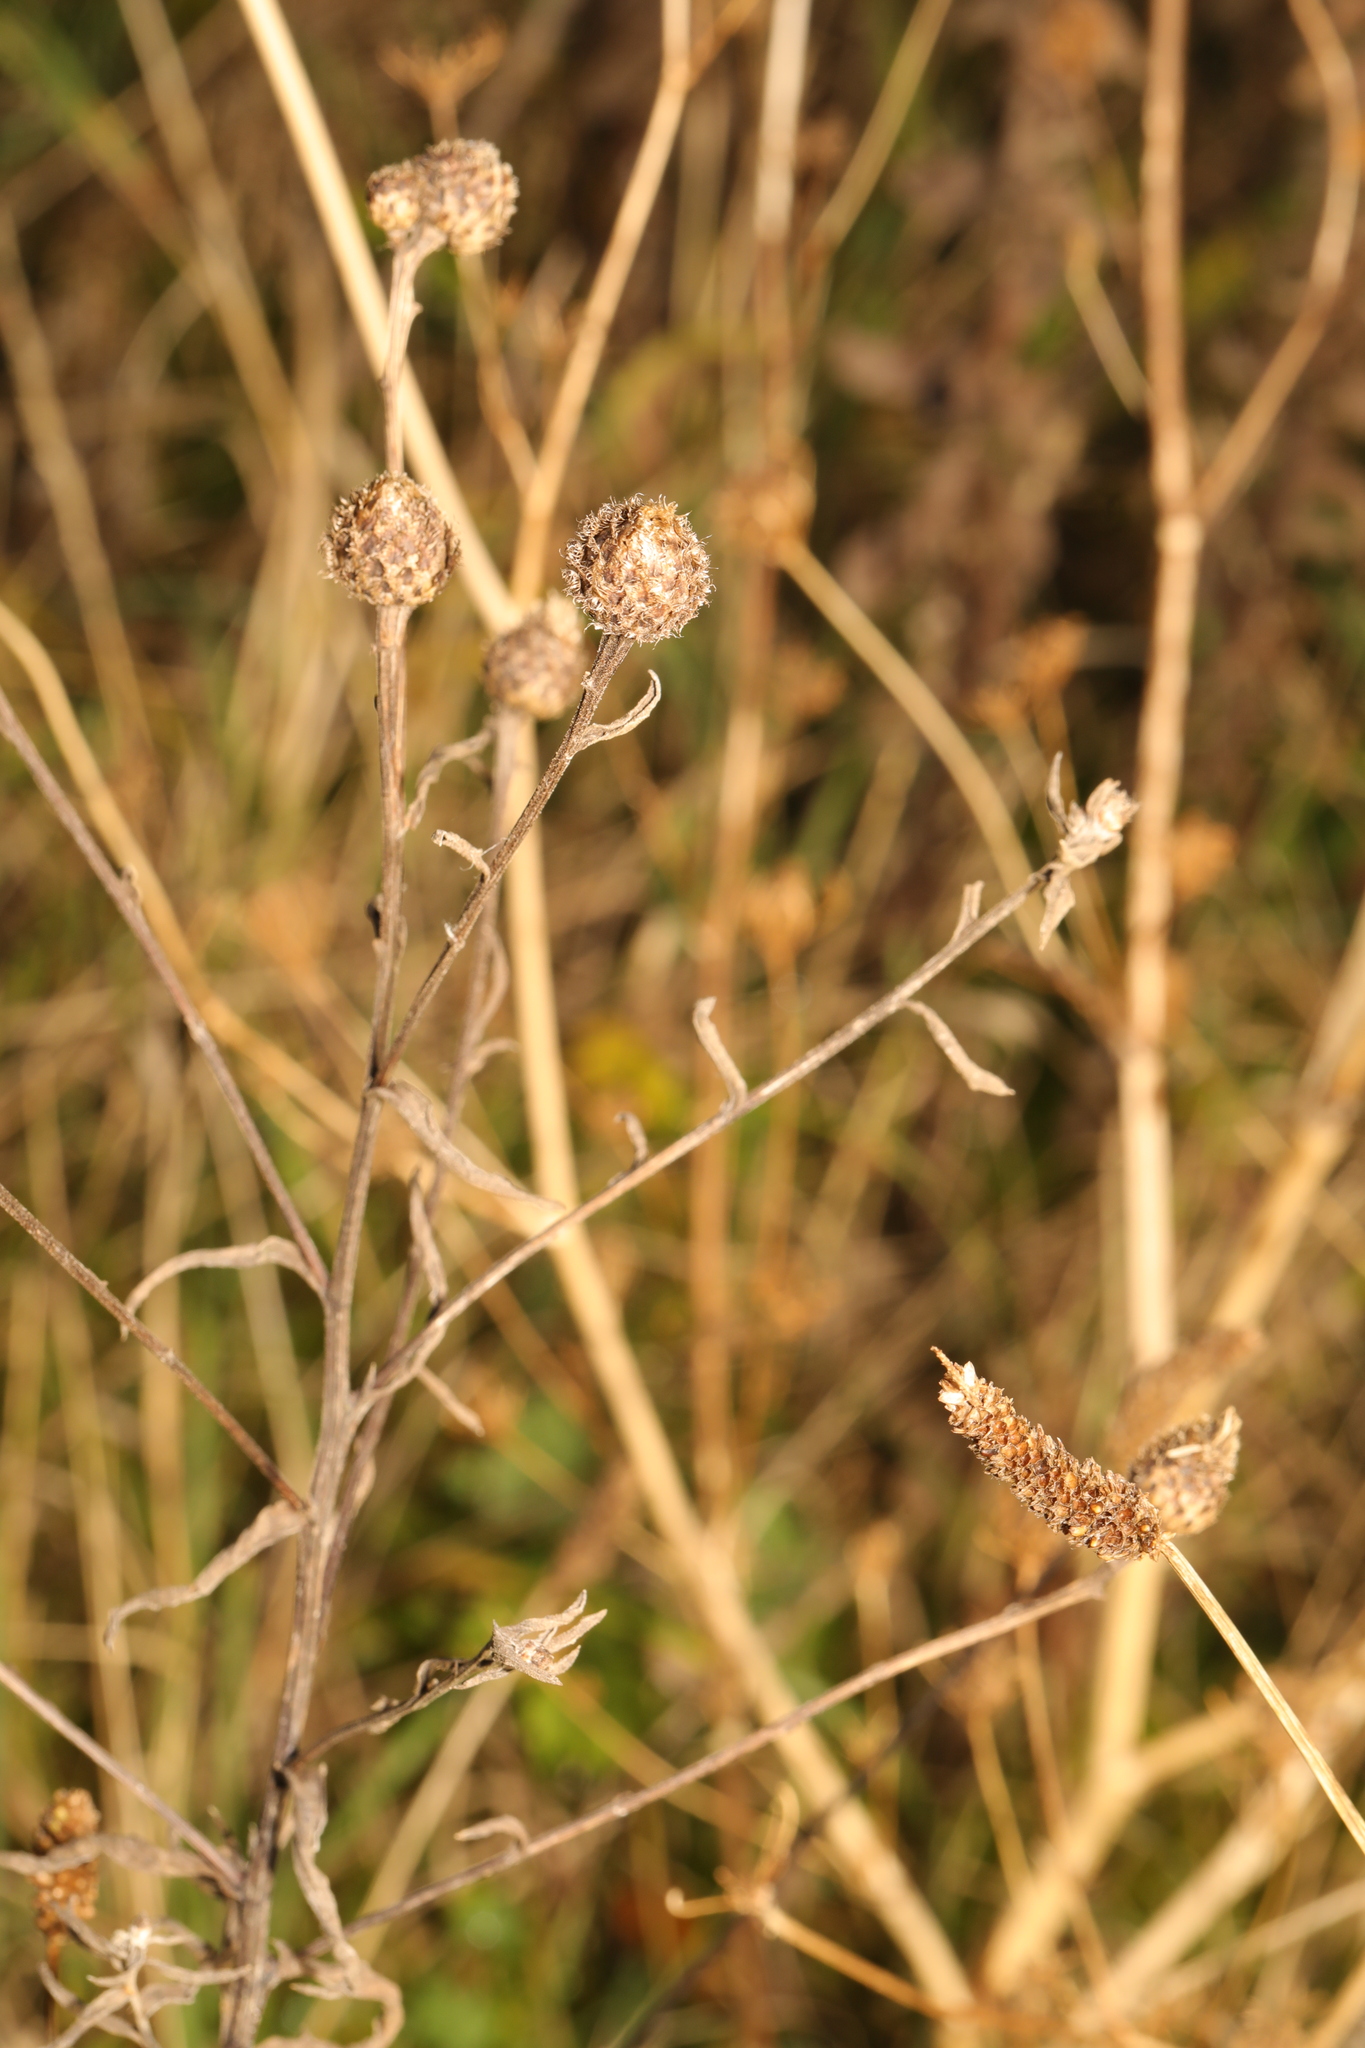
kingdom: Plantae
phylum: Tracheophyta
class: Magnoliopsida
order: Asterales
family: Asteraceae
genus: Centaurea
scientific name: Centaurea nigra
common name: Lesser knapweed
